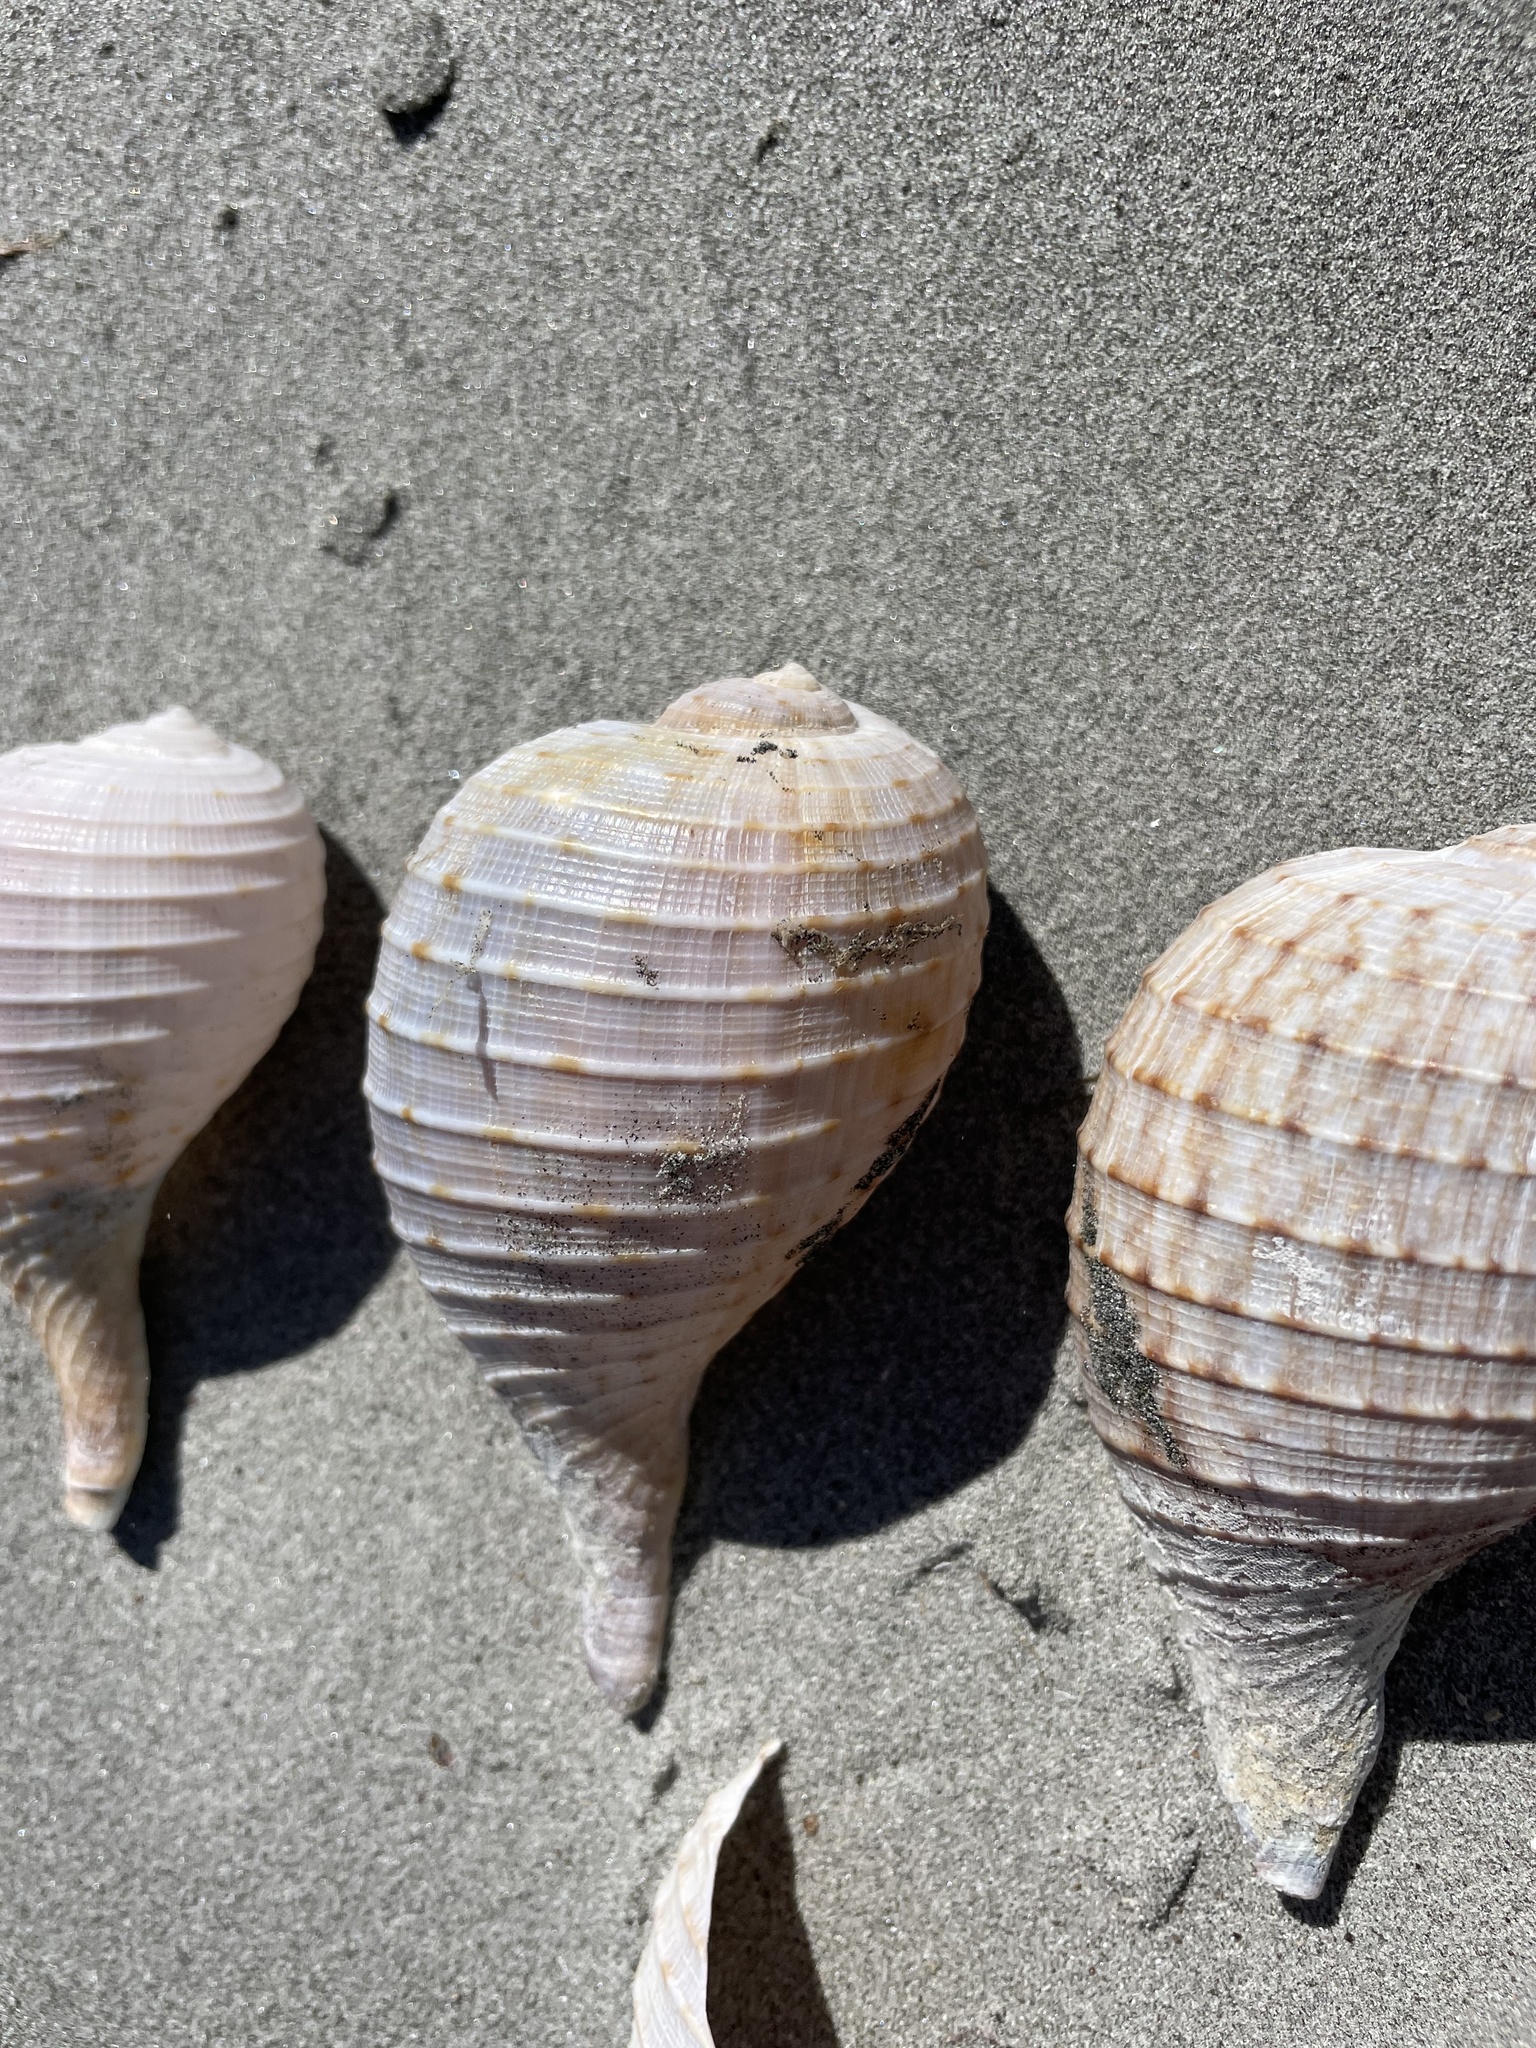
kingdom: Animalia
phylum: Mollusca
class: Gastropoda
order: Littorinimorpha
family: Ficidae
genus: Ficus
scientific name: Ficus ventricosa
